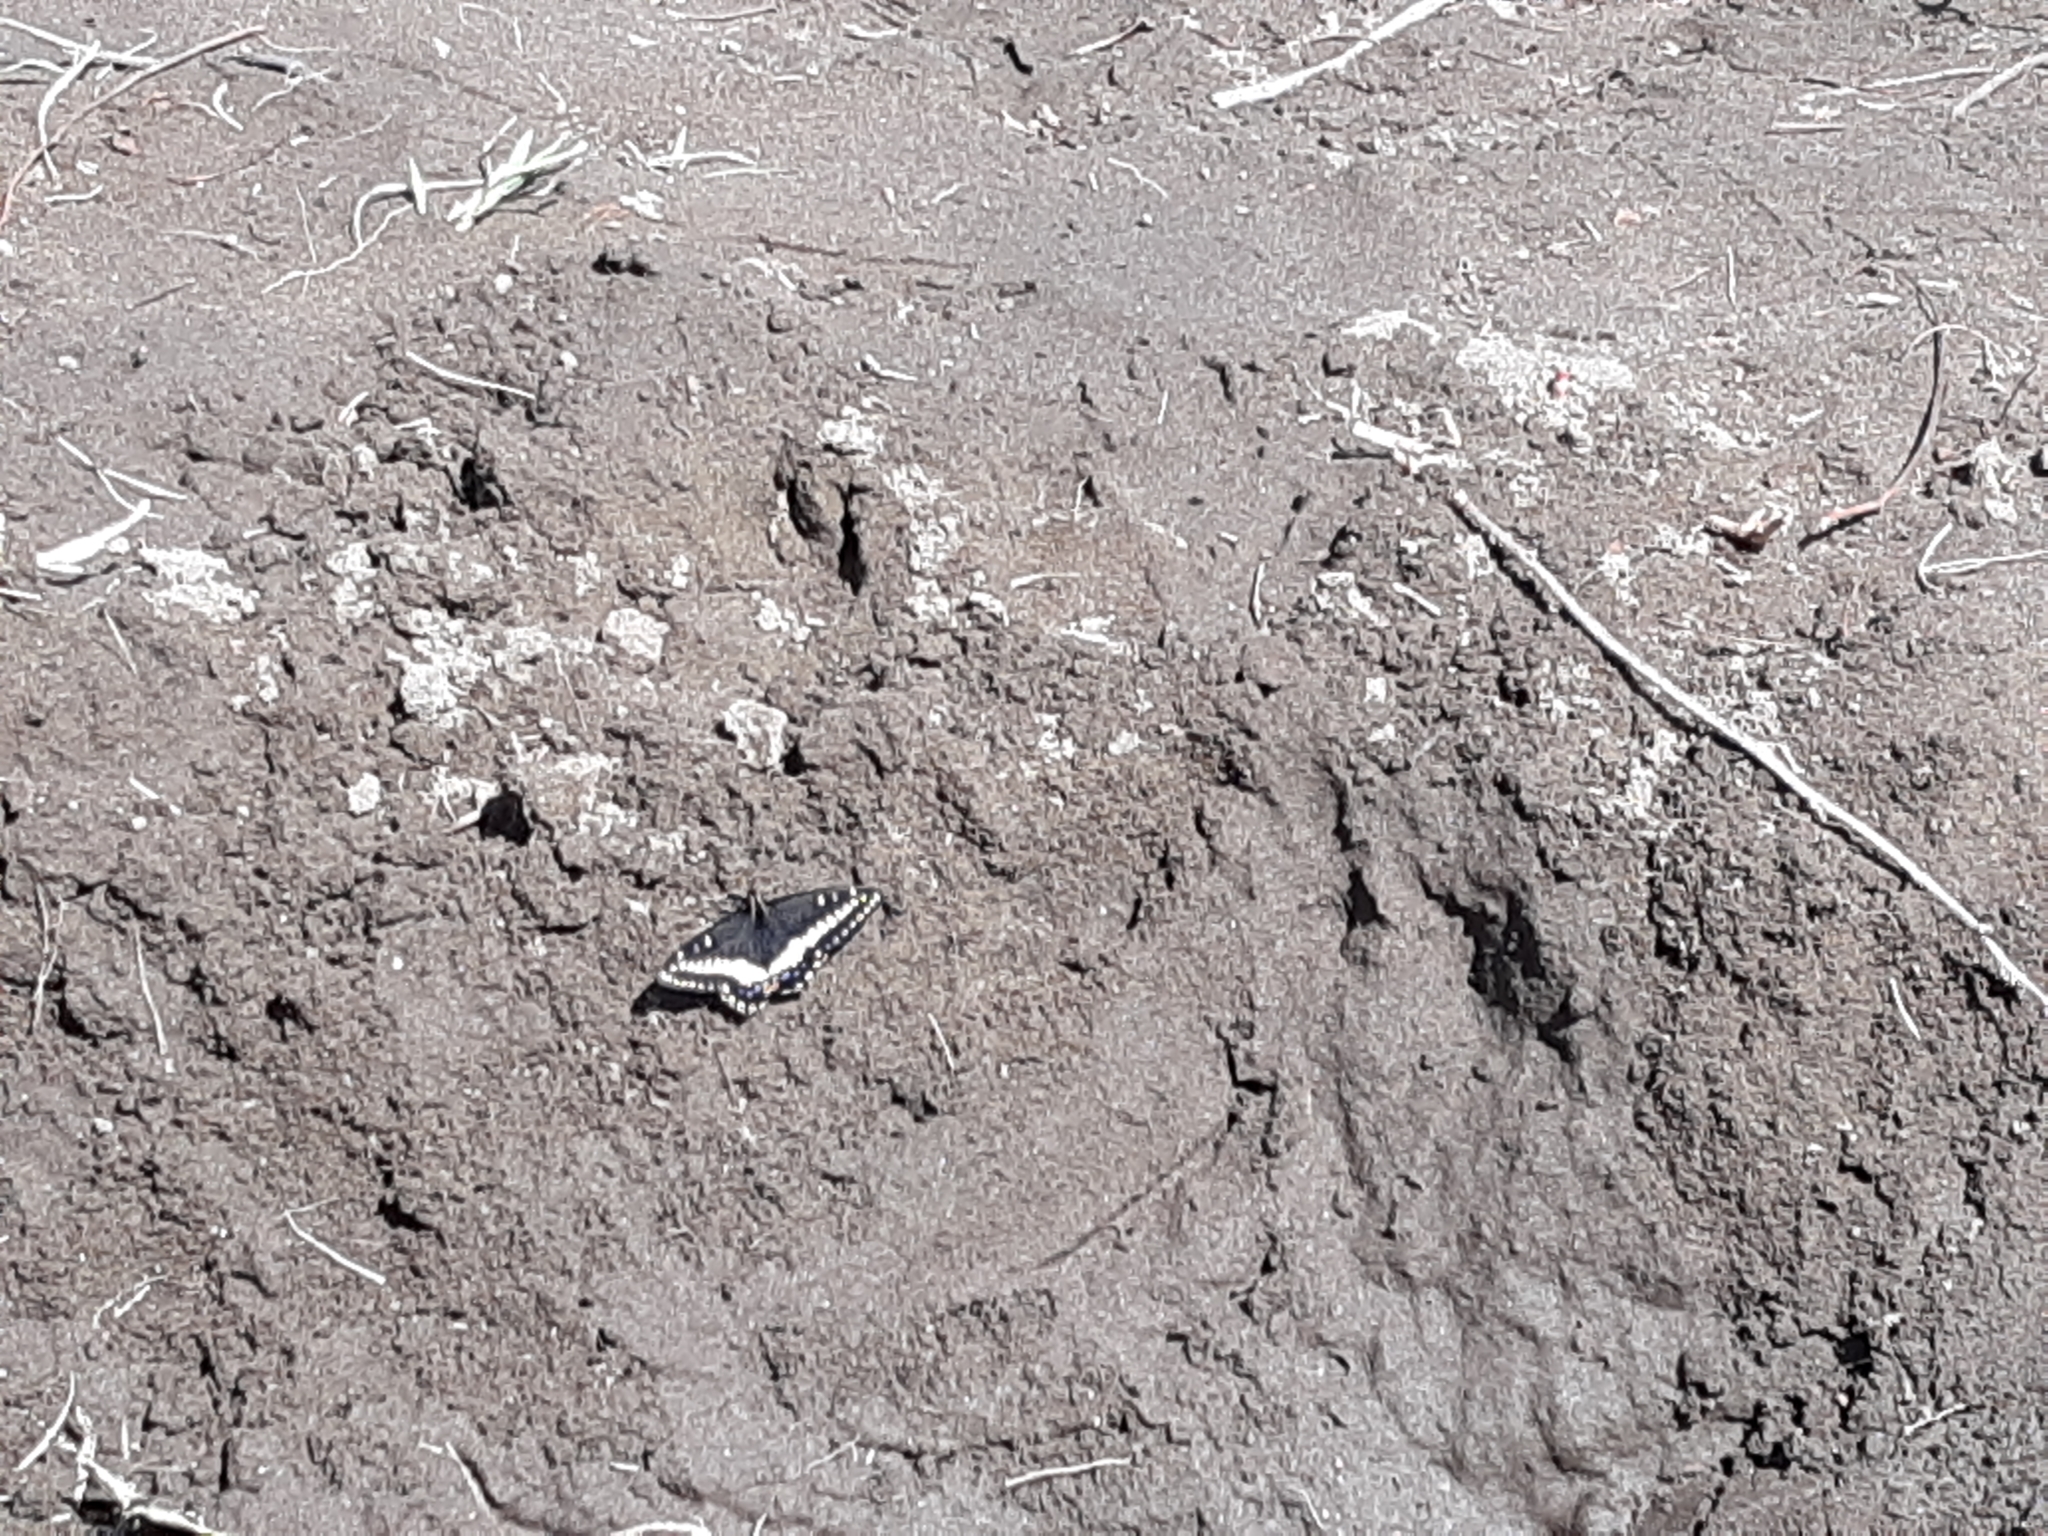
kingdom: Animalia
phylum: Arthropoda
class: Insecta
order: Lepidoptera
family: Papilionidae
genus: Papilio
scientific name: Papilio indra
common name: Cliff swallowtail
